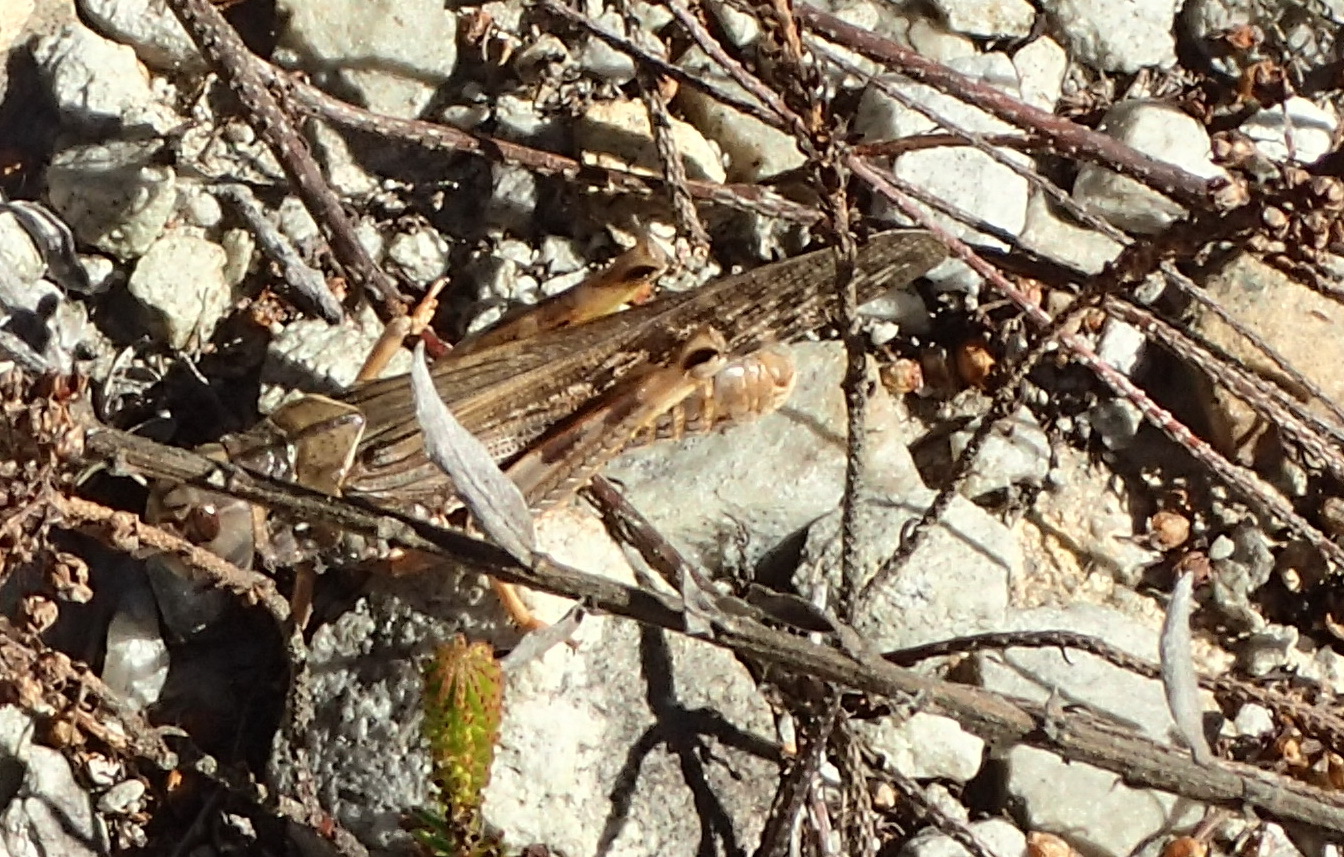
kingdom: Animalia
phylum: Arthropoda
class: Insecta
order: Orthoptera
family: Acrididae
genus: Locustana
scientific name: Locustana pardalina
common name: Brown locust
